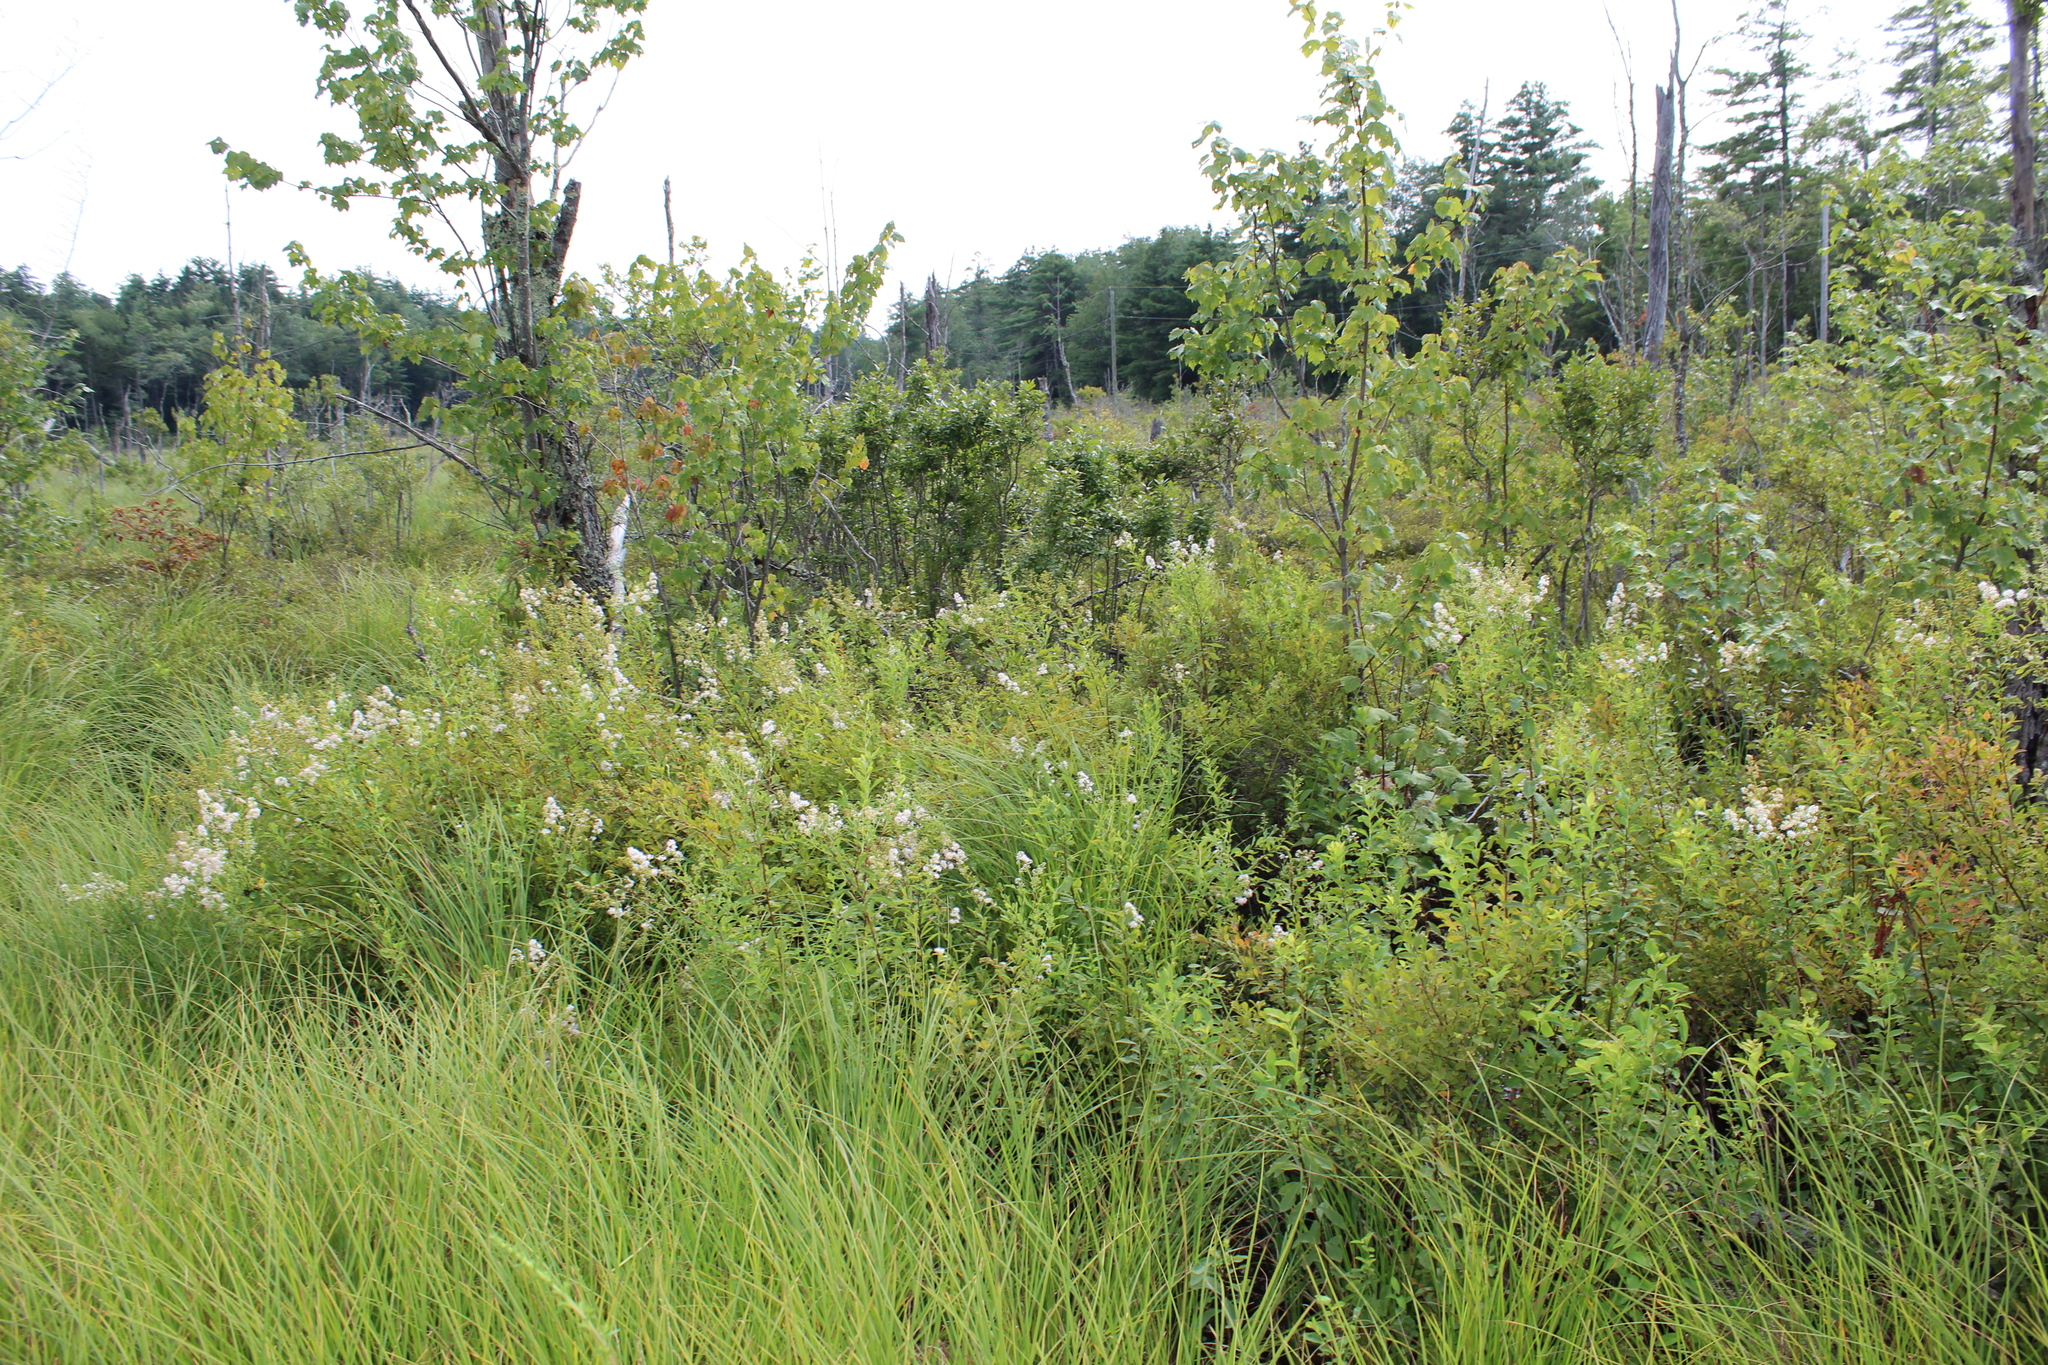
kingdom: Plantae
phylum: Tracheophyta
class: Magnoliopsida
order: Rosales
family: Rosaceae
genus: Spiraea
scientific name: Spiraea alba
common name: Pale bridewort
